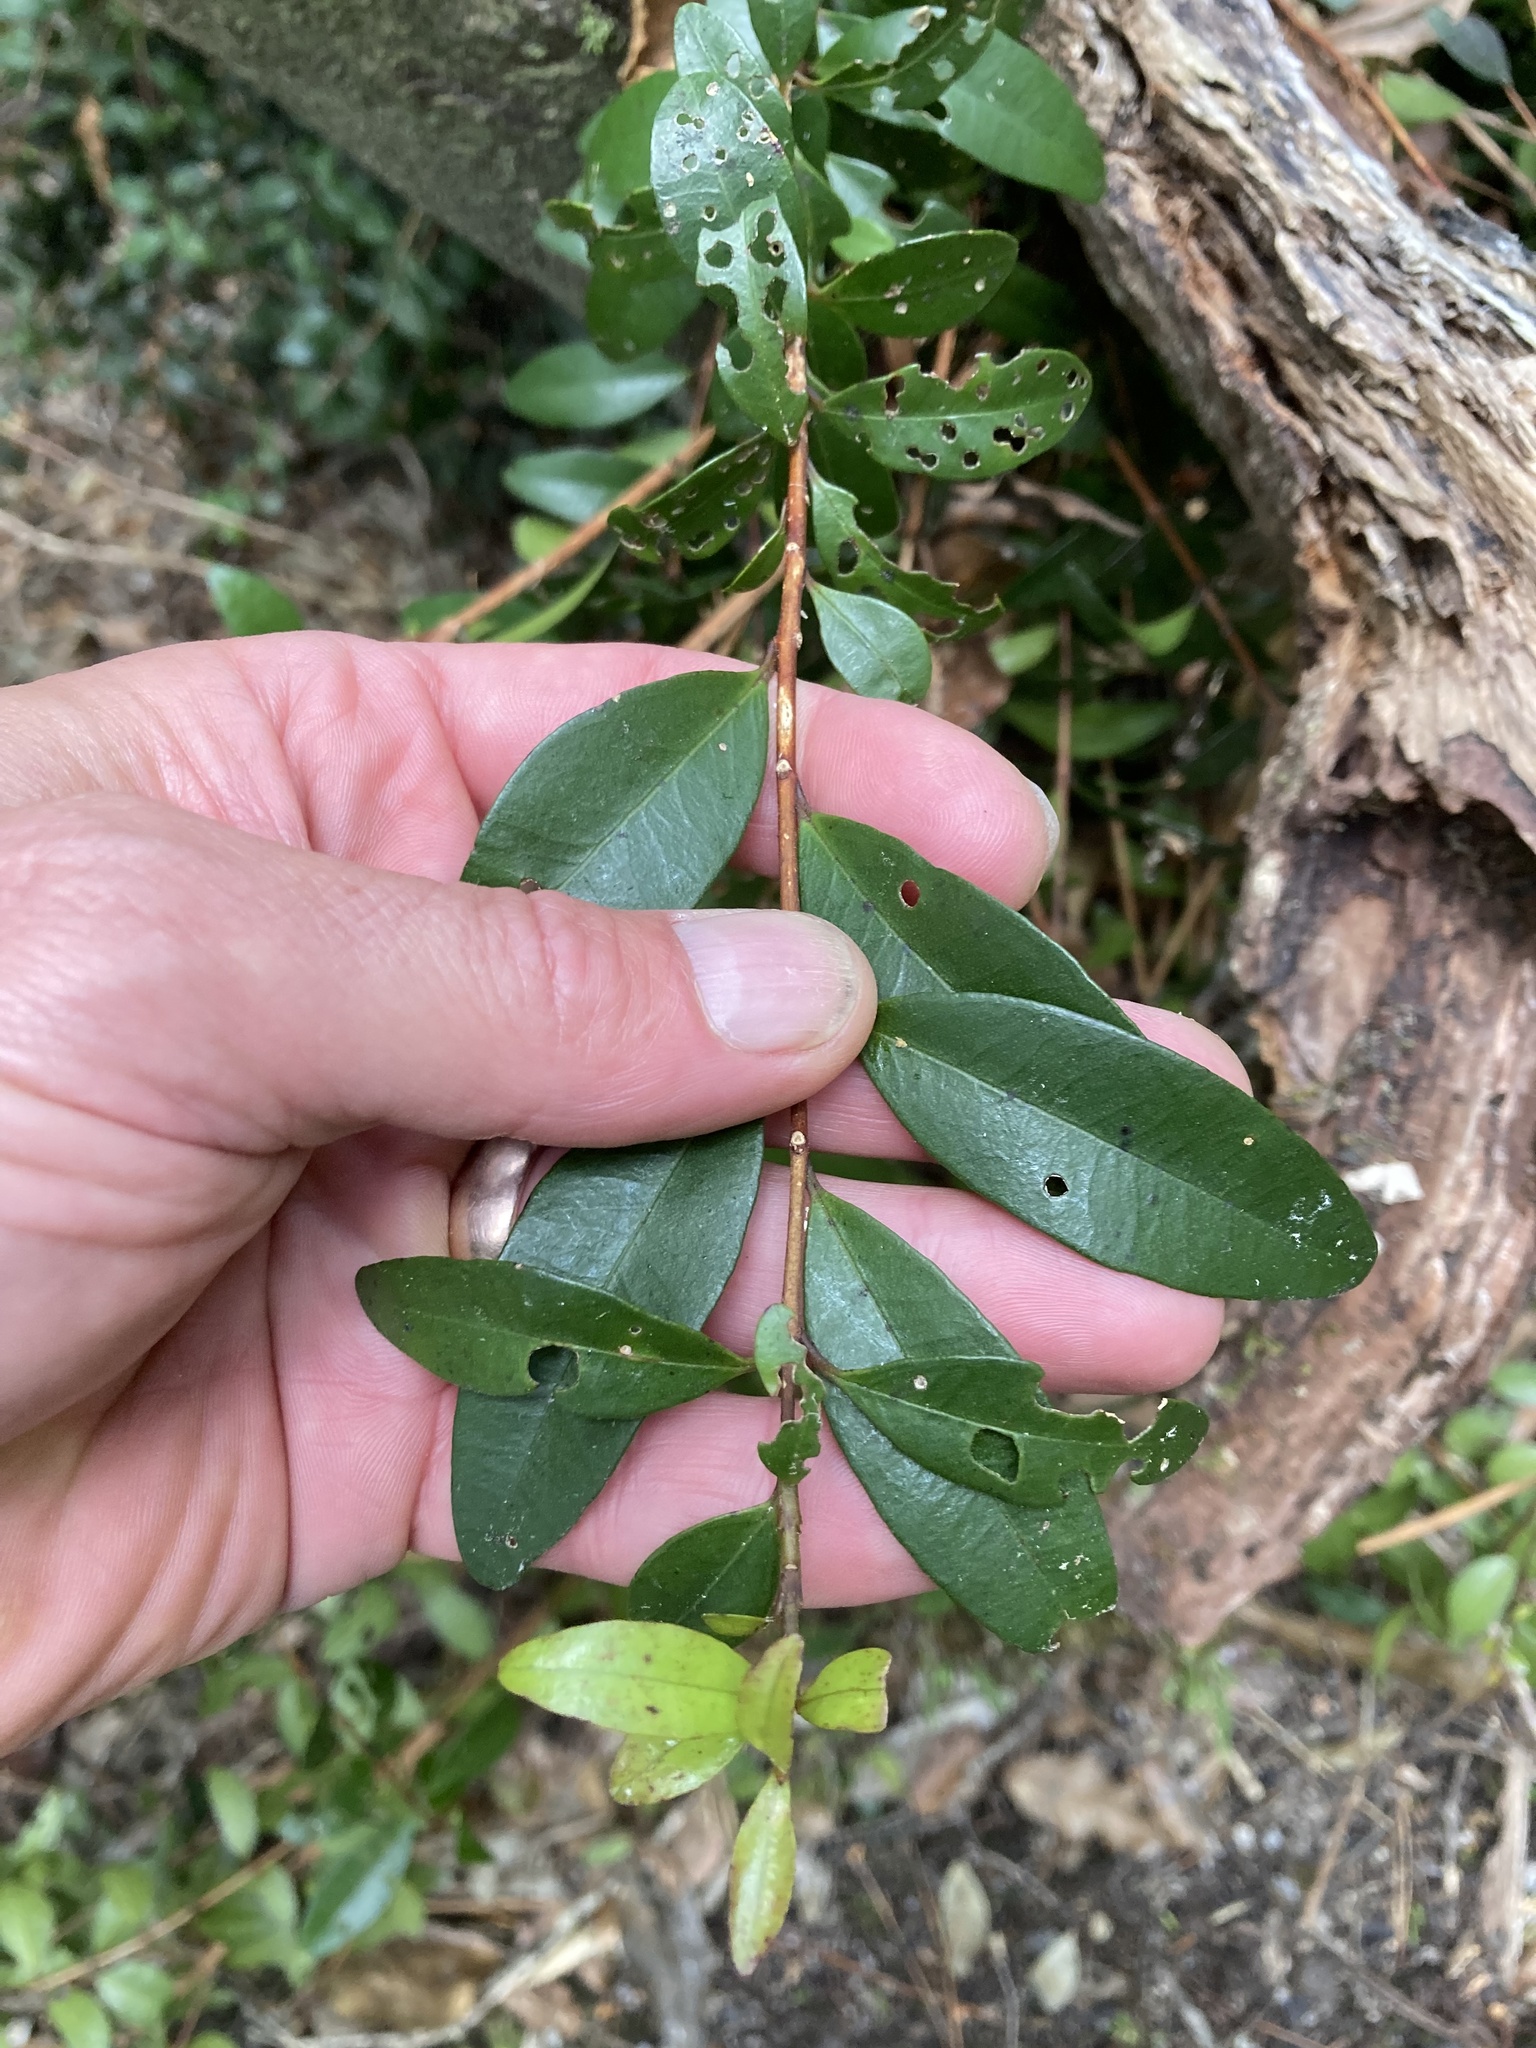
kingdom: Plantae
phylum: Tracheophyta
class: Magnoliopsida
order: Myrtales
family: Myrtaceae
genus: Metrosideros
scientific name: Metrosideros fulgens
